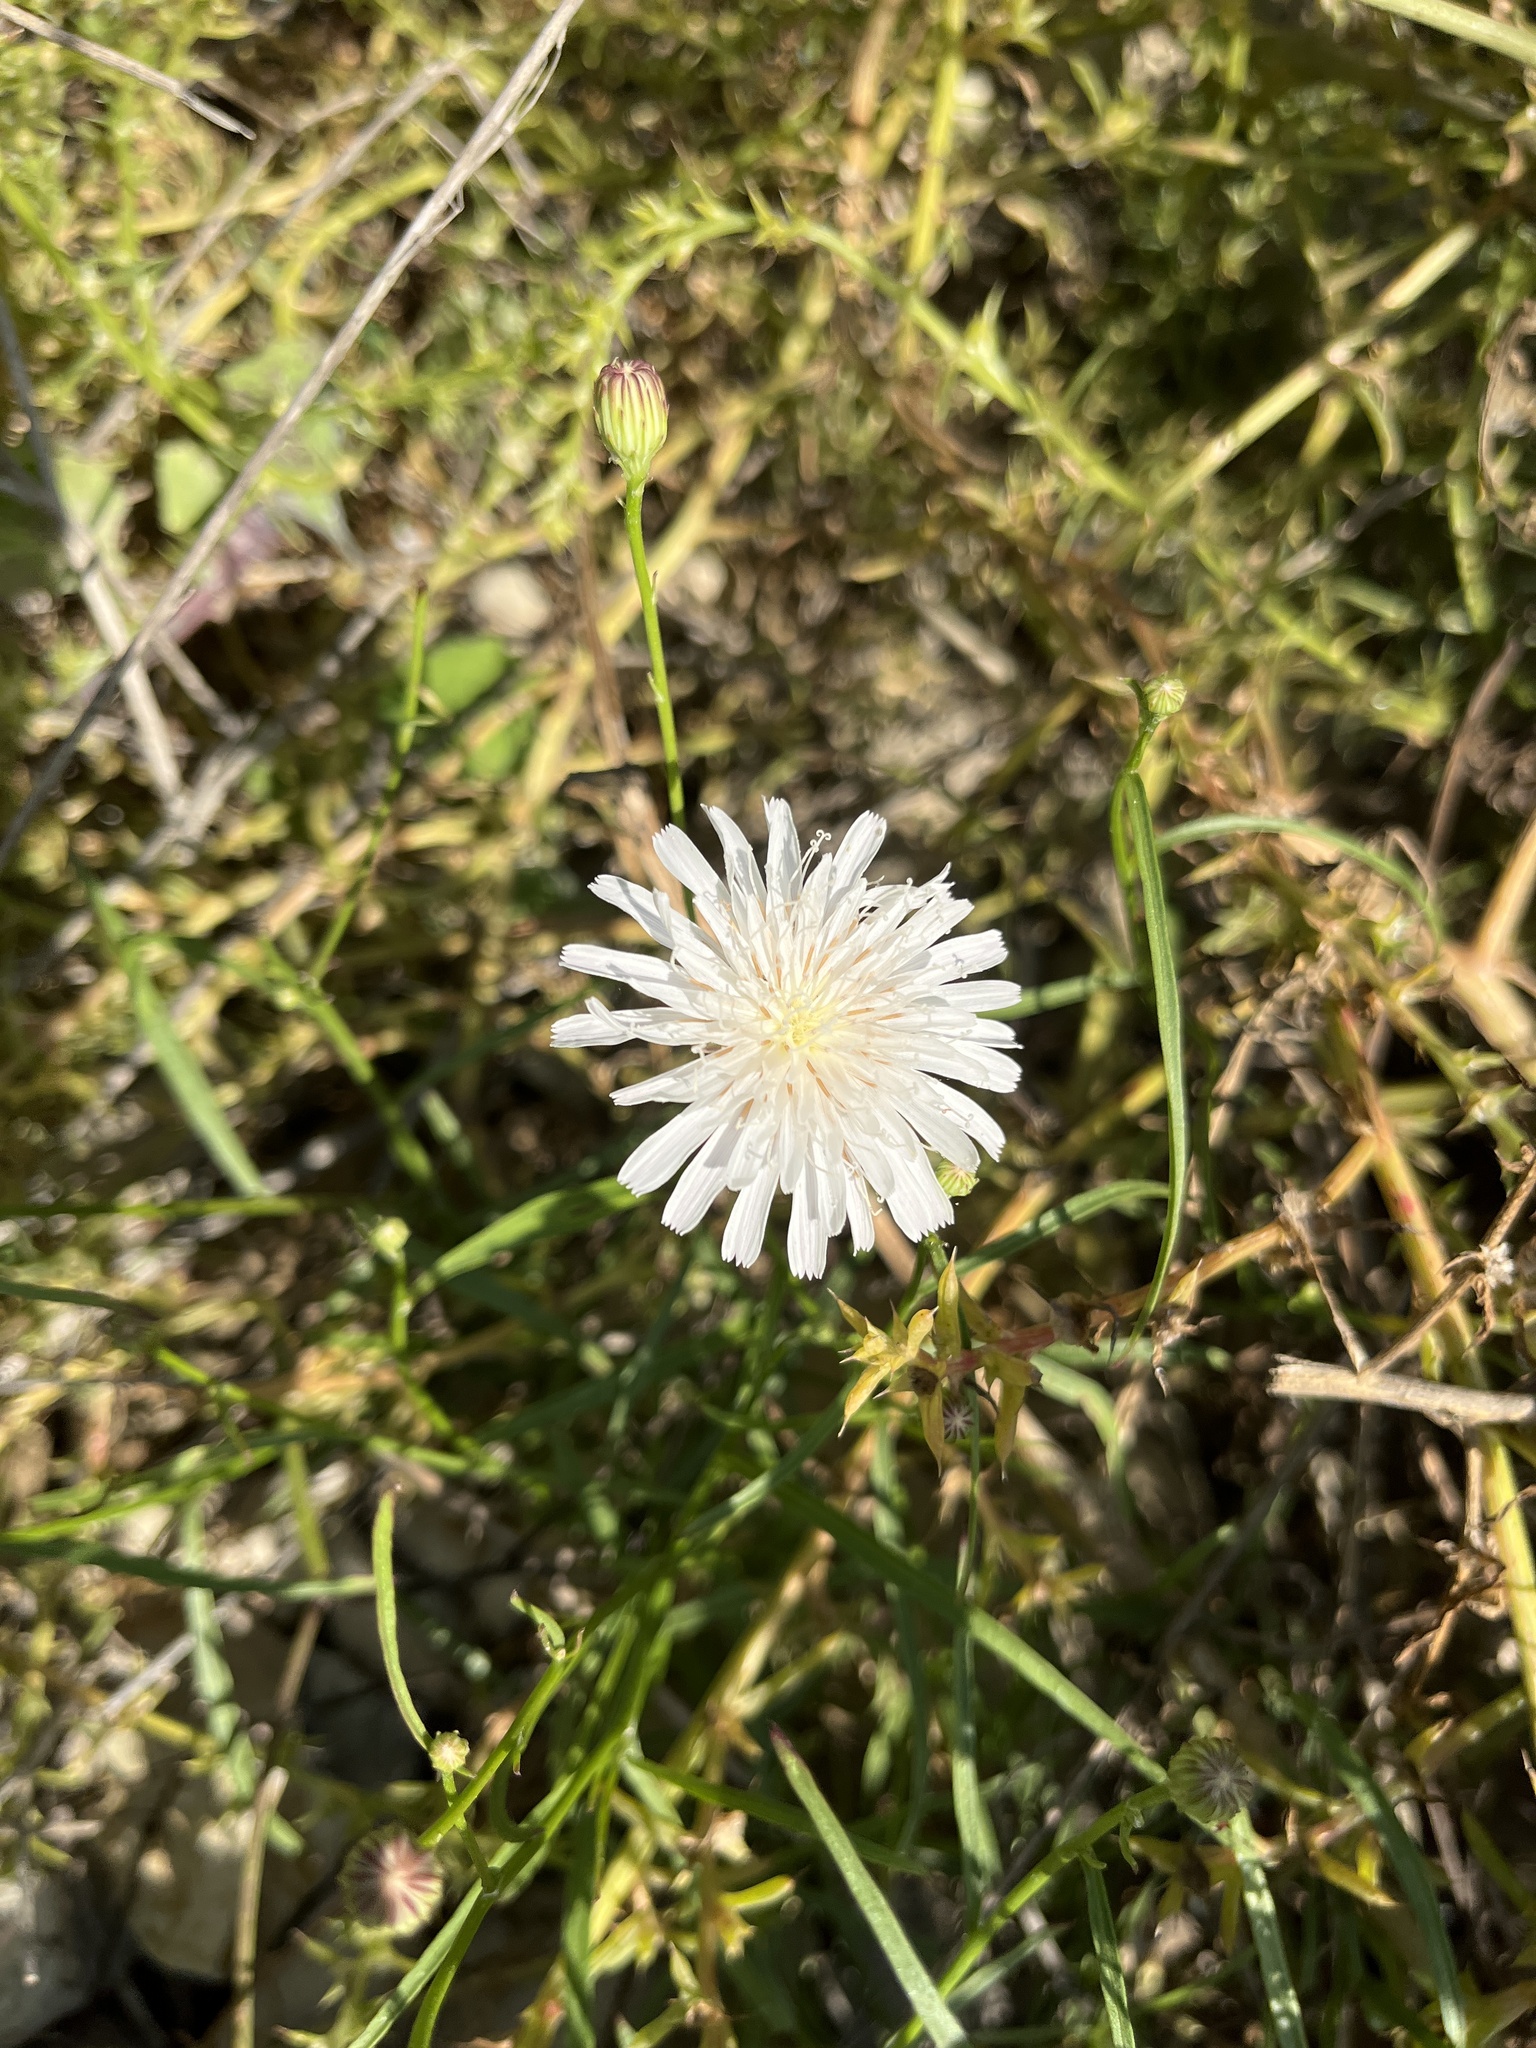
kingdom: Plantae
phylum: Tracheophyta
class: Magnoliopsida
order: Asterales
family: Asteraceae
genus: Malacothrix
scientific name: Malacothrix saxatilis
